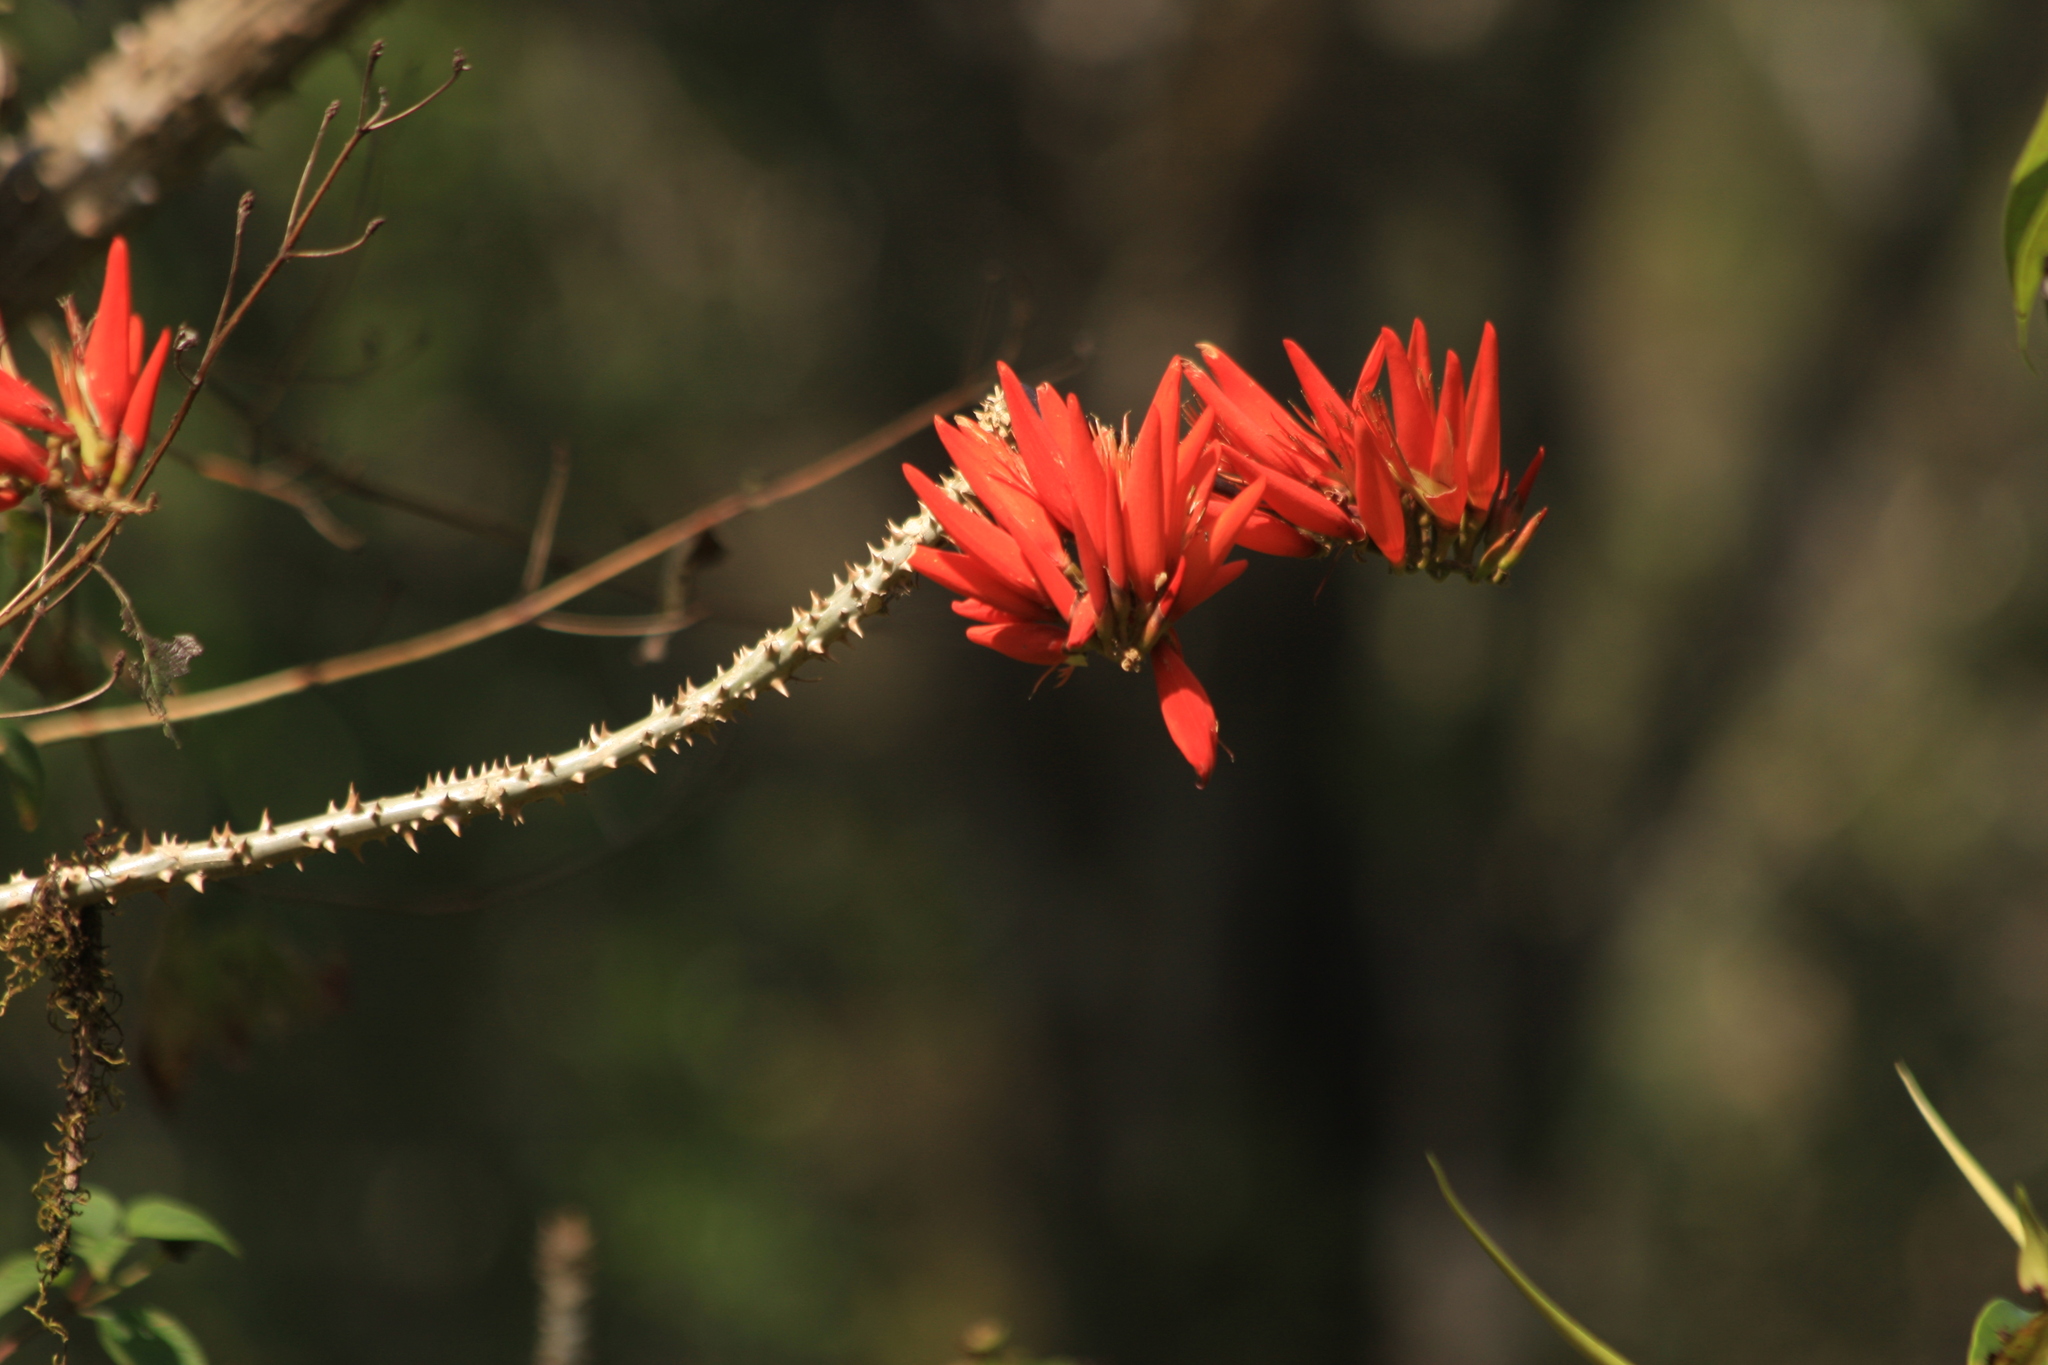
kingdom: Plantae
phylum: Tracheophyta
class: Magnoliopsida
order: Fabales
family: Fabaceae
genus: Erythrina
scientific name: Erythrina variegata
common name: Indian coral tree
